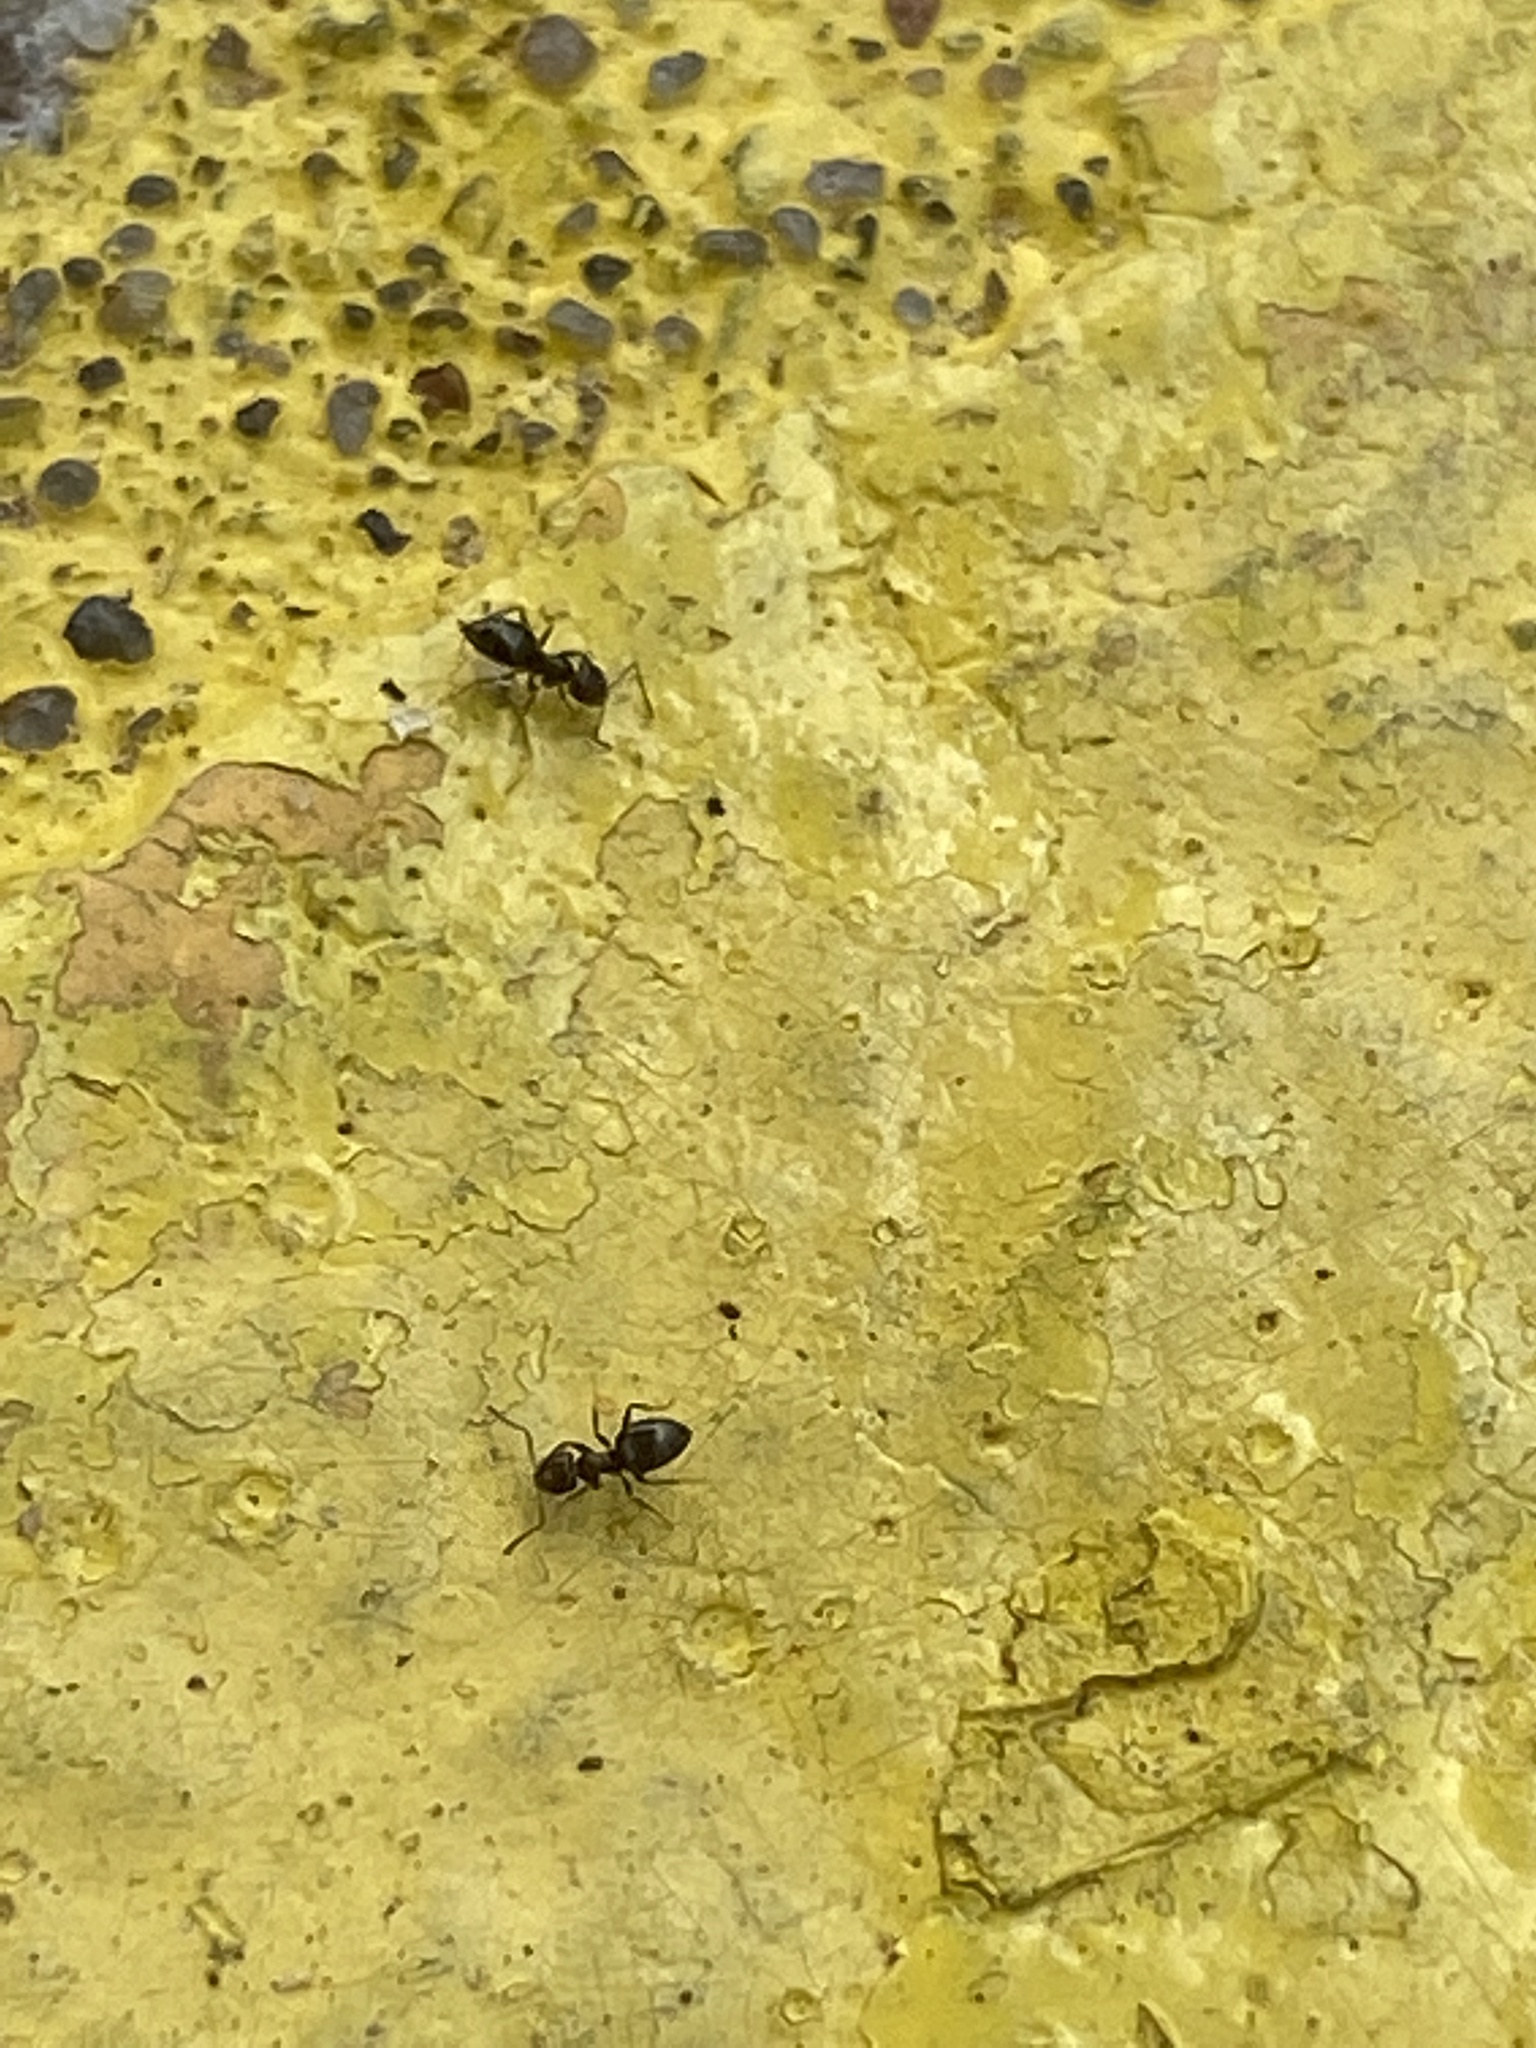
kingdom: Animalia
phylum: Arthropoda
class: Insecta
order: Hymenoptera
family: Formicidae
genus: Brachymyrmex
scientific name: Brachymyrmex patagonicus
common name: Dark rover ant
